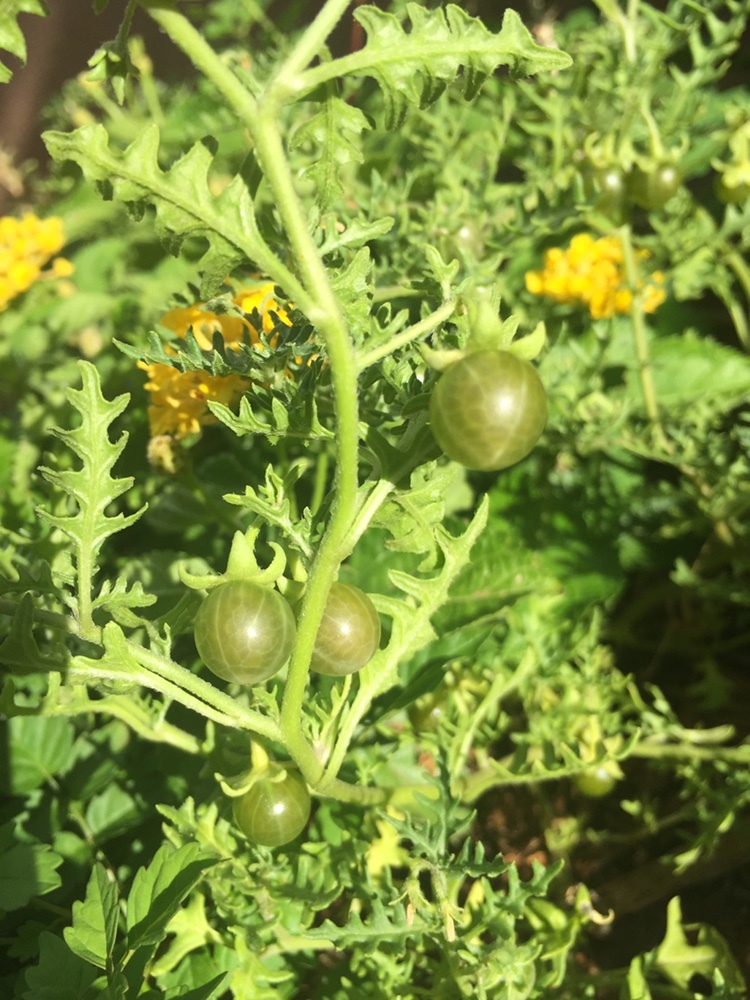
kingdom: Plantae
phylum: Tracheophyta
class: Magnoliopsida
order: Solanales
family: Solanaceae
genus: Solanum
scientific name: Solanum triflorum
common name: Small nightshade
